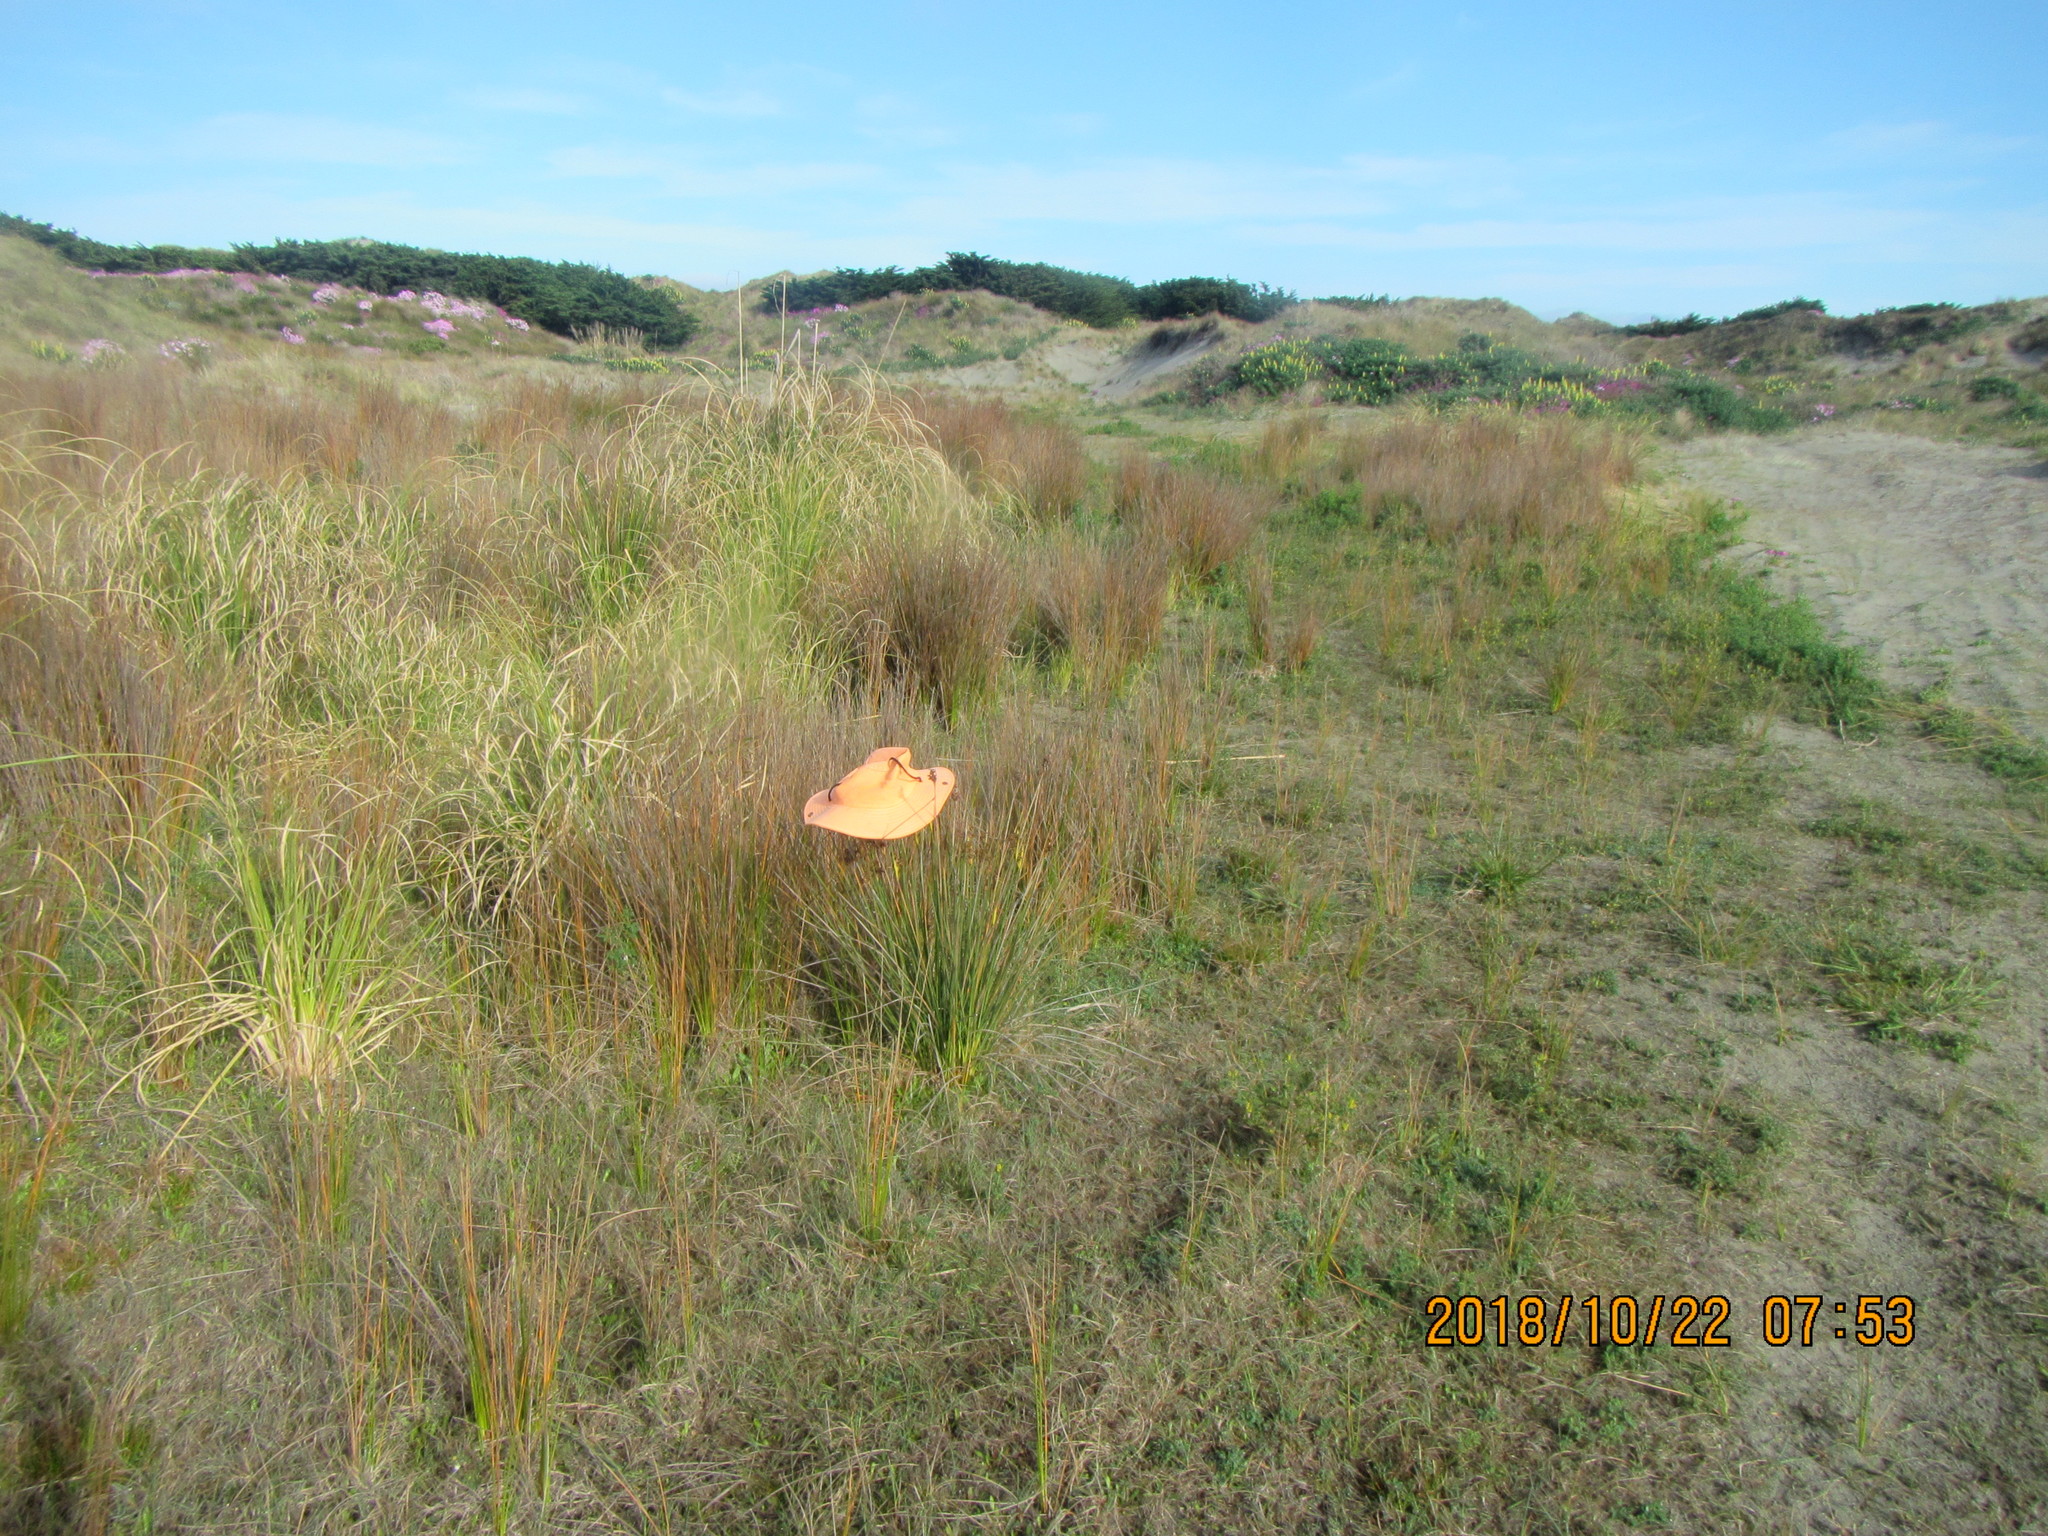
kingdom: Plantae
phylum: Tracheophyta
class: Liliopsida
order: Poales
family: Juncaceae
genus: Juncus
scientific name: Juncus acutus
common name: Sharp rush
